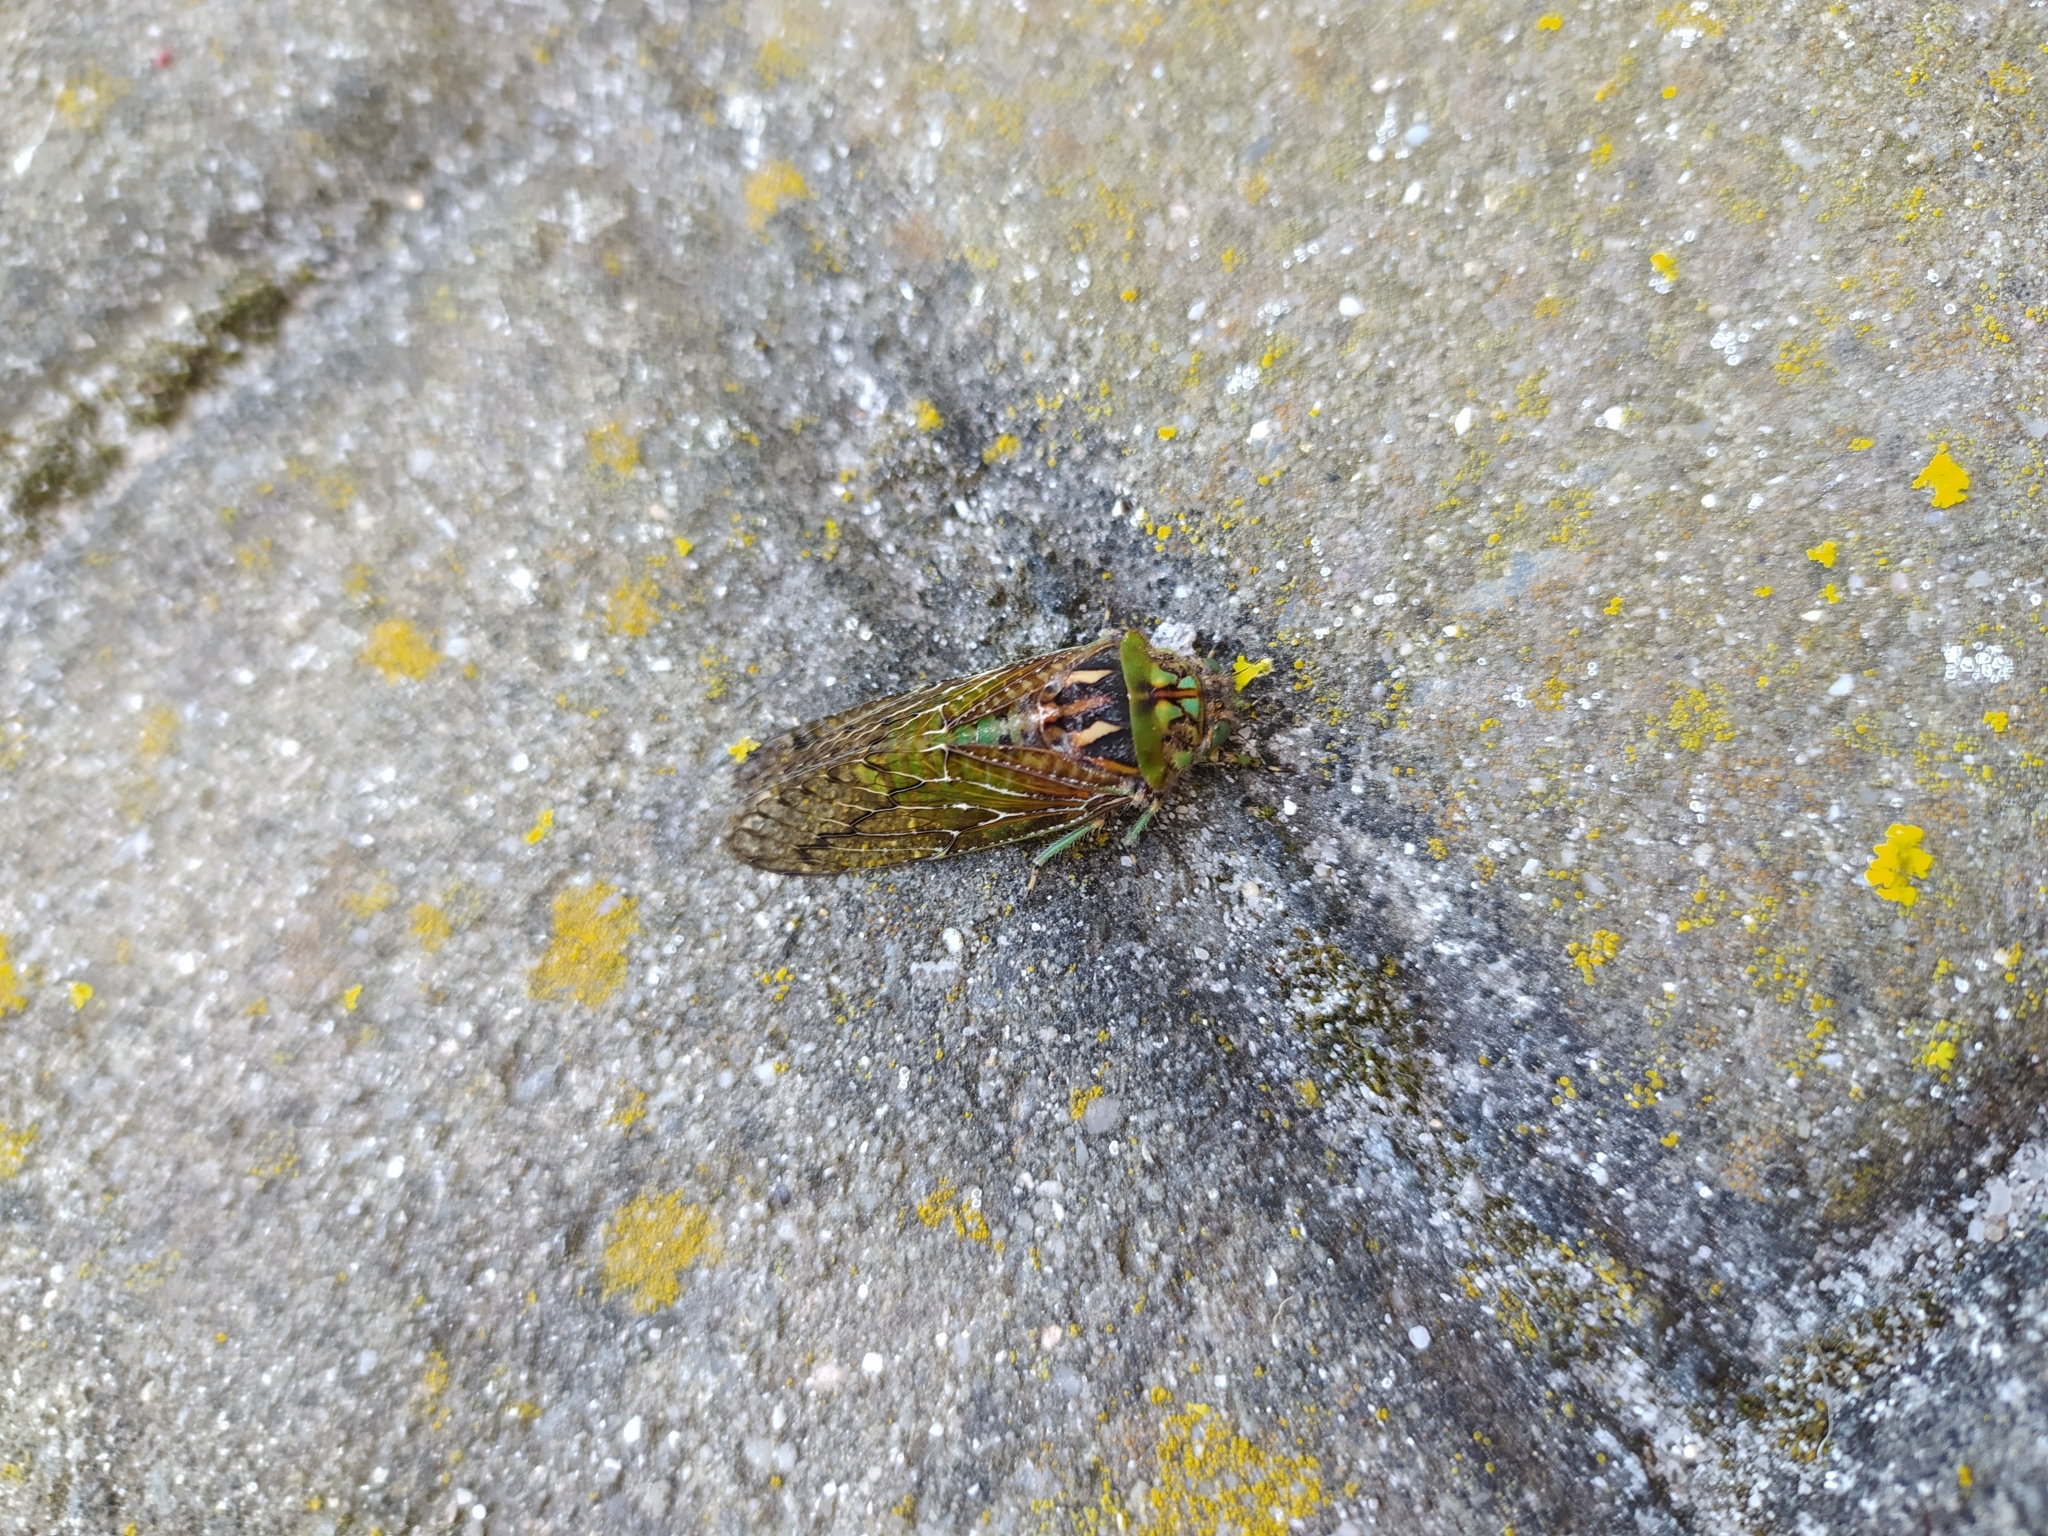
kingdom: Animalia
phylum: Arthropoda
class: Insecta
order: Hemiptera
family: Cicadidae
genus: Neomuda
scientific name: Neomuda trimeni
